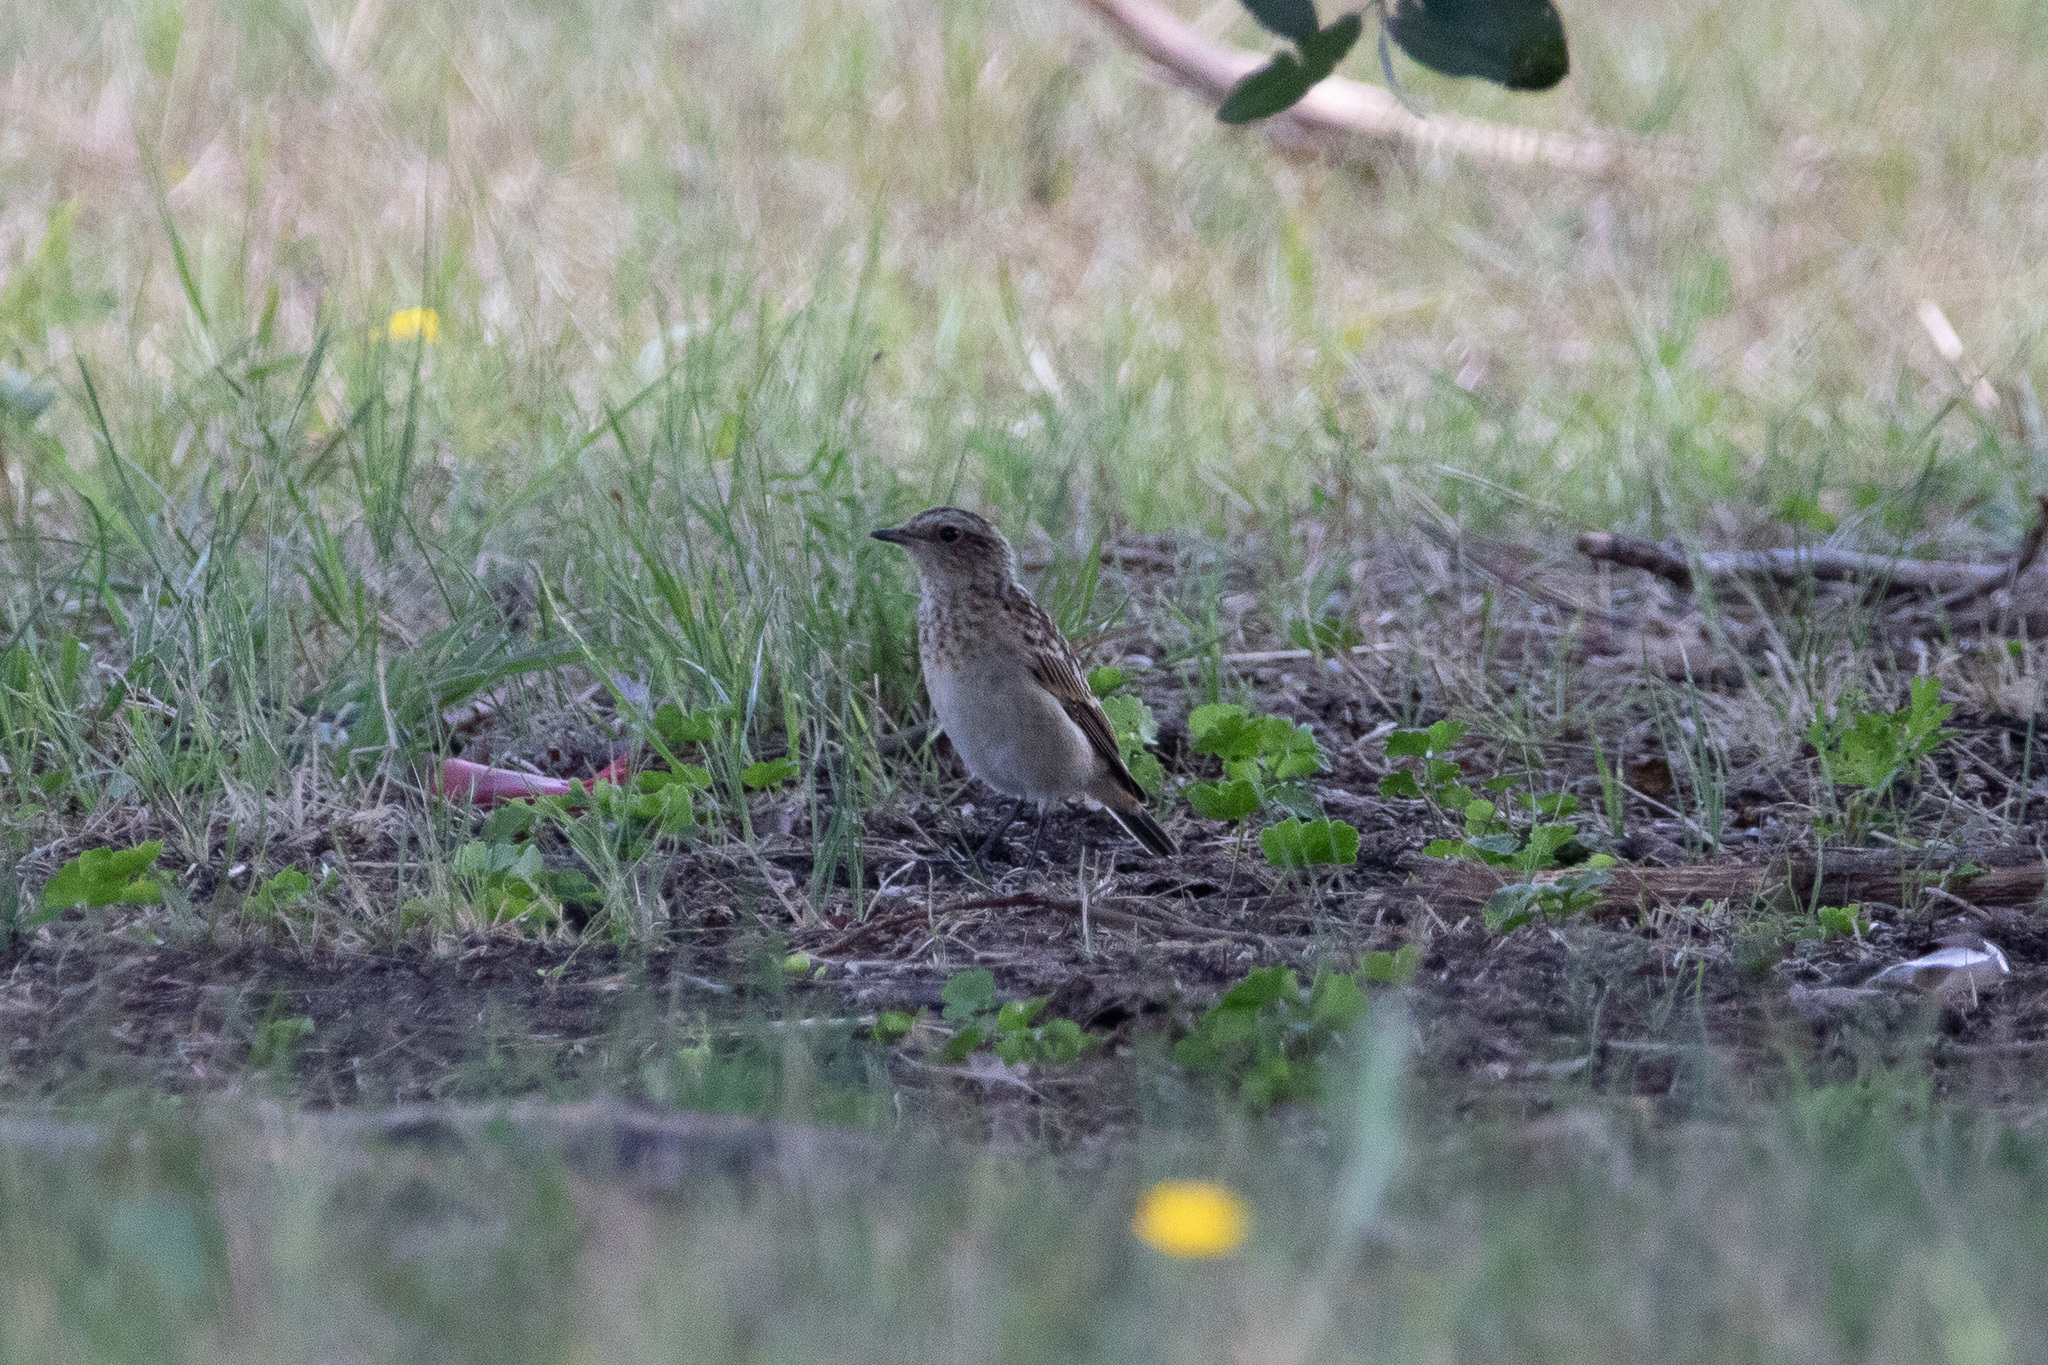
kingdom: Animalia
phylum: Chordata
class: Aves
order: Passeriformes
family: Muscicapidae
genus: Saxicola
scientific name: Saxicola rubetra
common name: Whinchat
